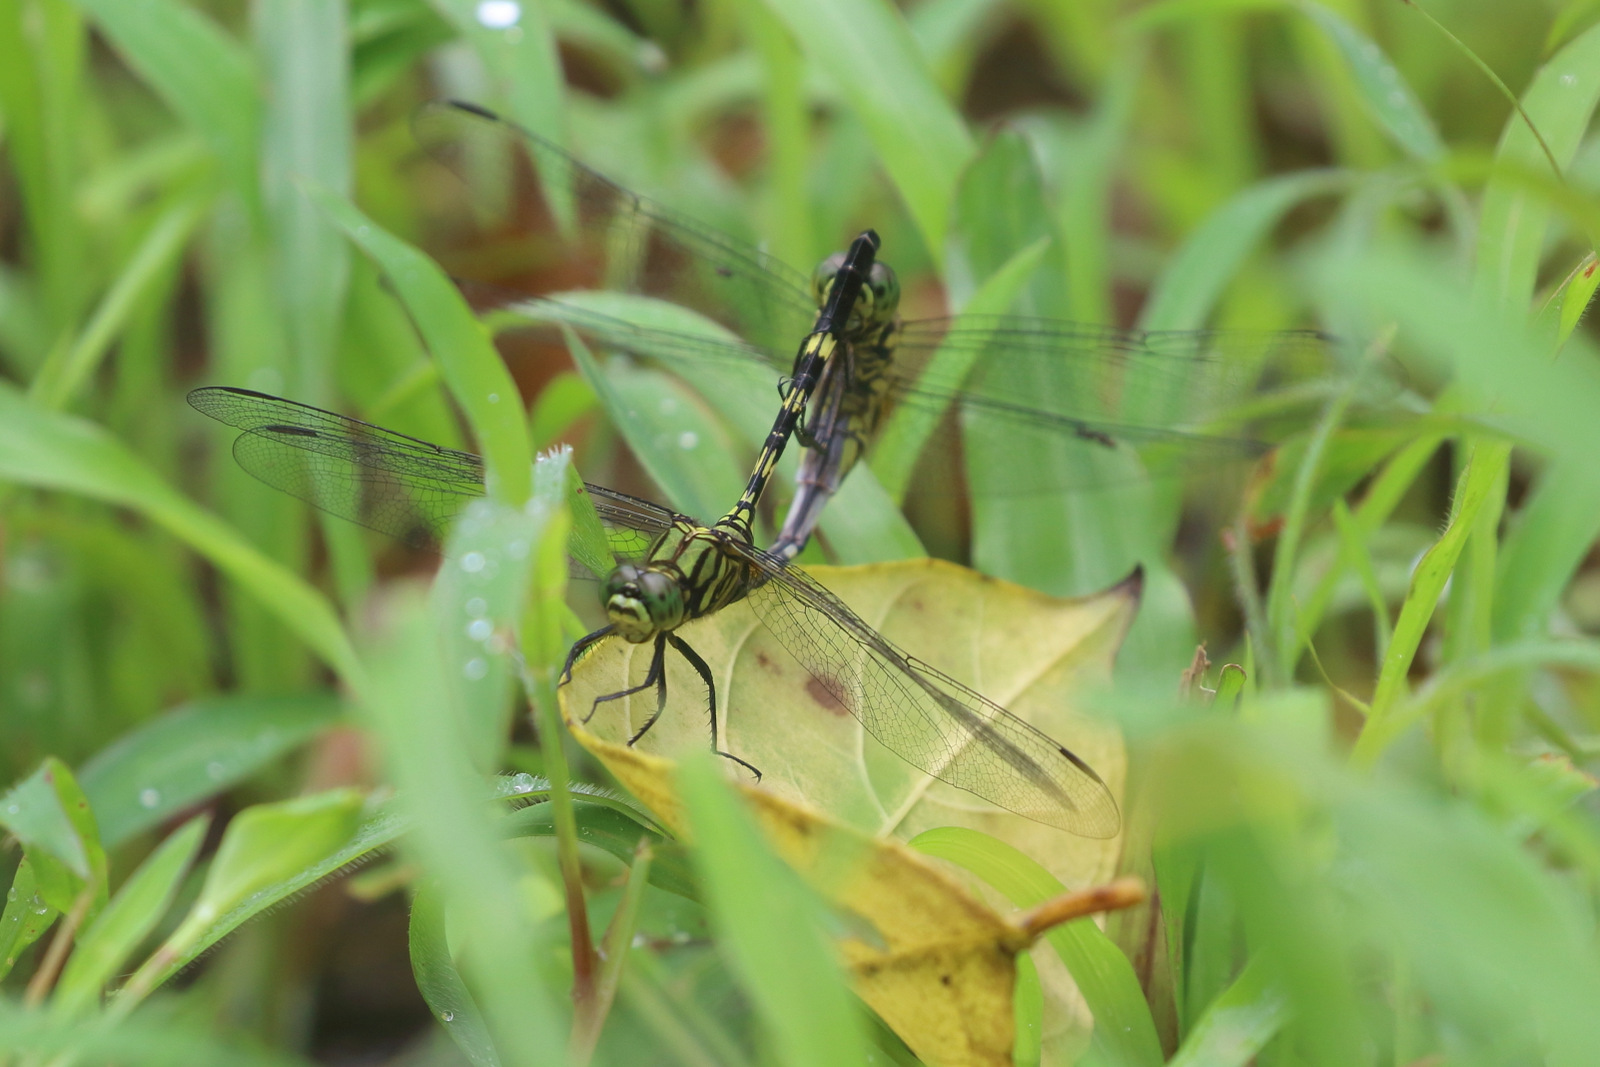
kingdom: Animalia
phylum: Arthropoda
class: Insecta
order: Odonata
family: Libellulidae
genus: Orthetrum
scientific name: Orthetrum serapia
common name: Green skimmer
